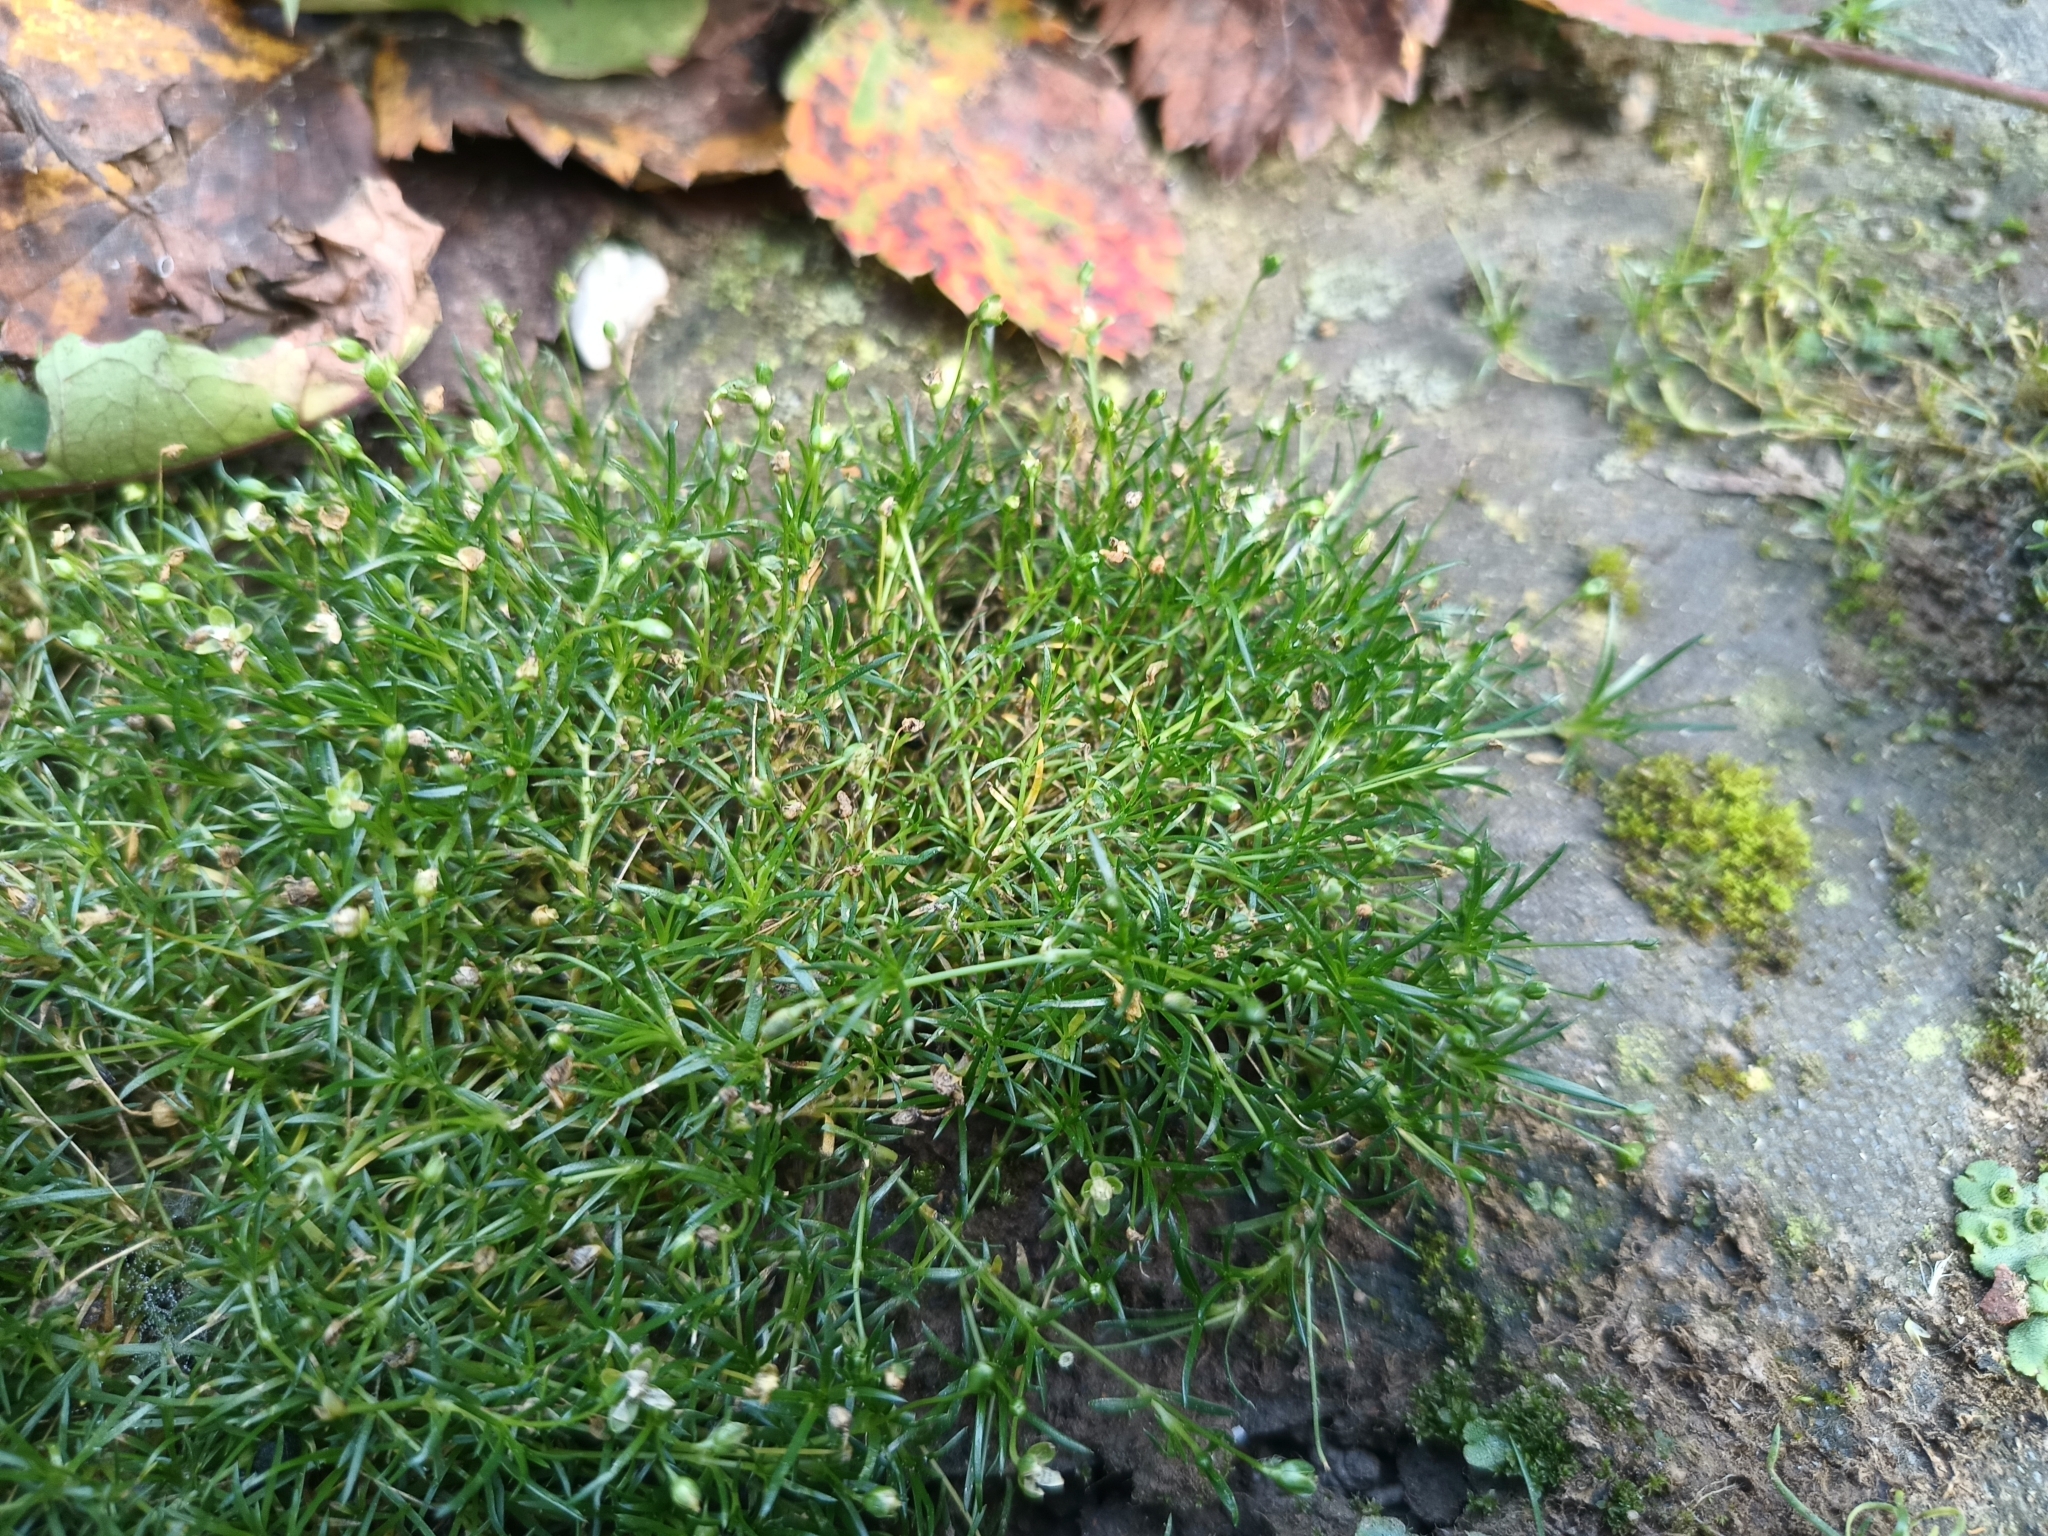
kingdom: Plantae
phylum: Tracheophyta
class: Magnoliopsida
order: Caryophyllales
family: Caryophyllaceae
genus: Sagina
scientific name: Sagina procumbens
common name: Procumbent pearlwort
